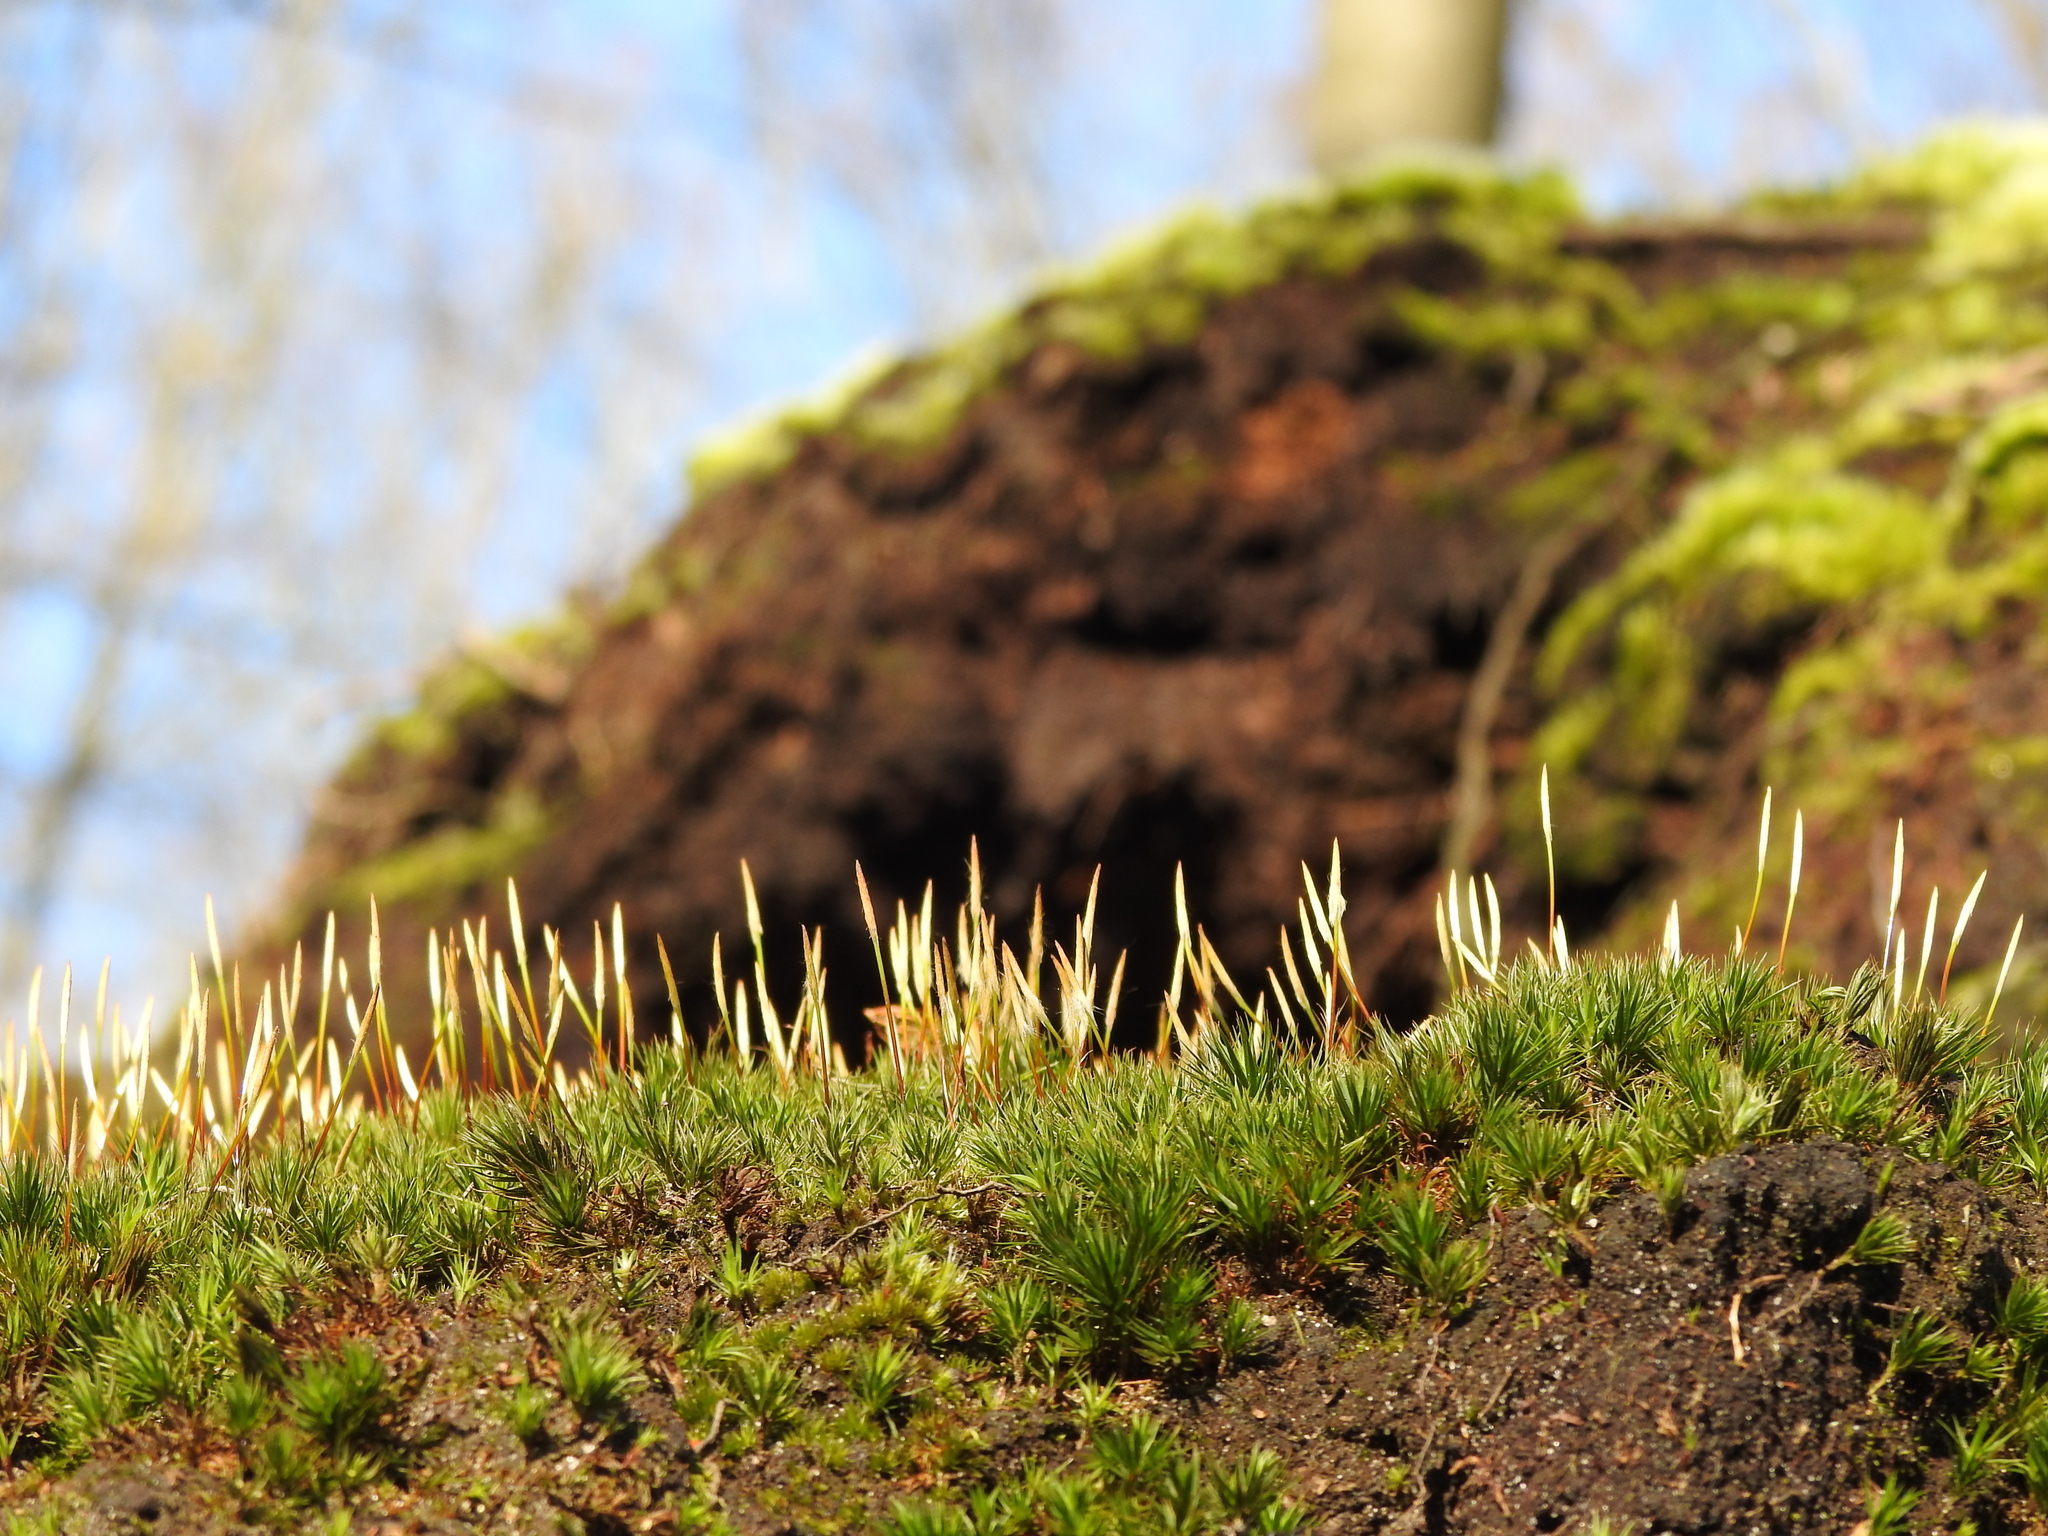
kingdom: Plantae
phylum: Bryophyta
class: Polytrichopsida
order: Polytrichales
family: Polytrichaceae
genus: Polytrichum
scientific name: Polytrichum juniperinum
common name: Juniper haircap moss
